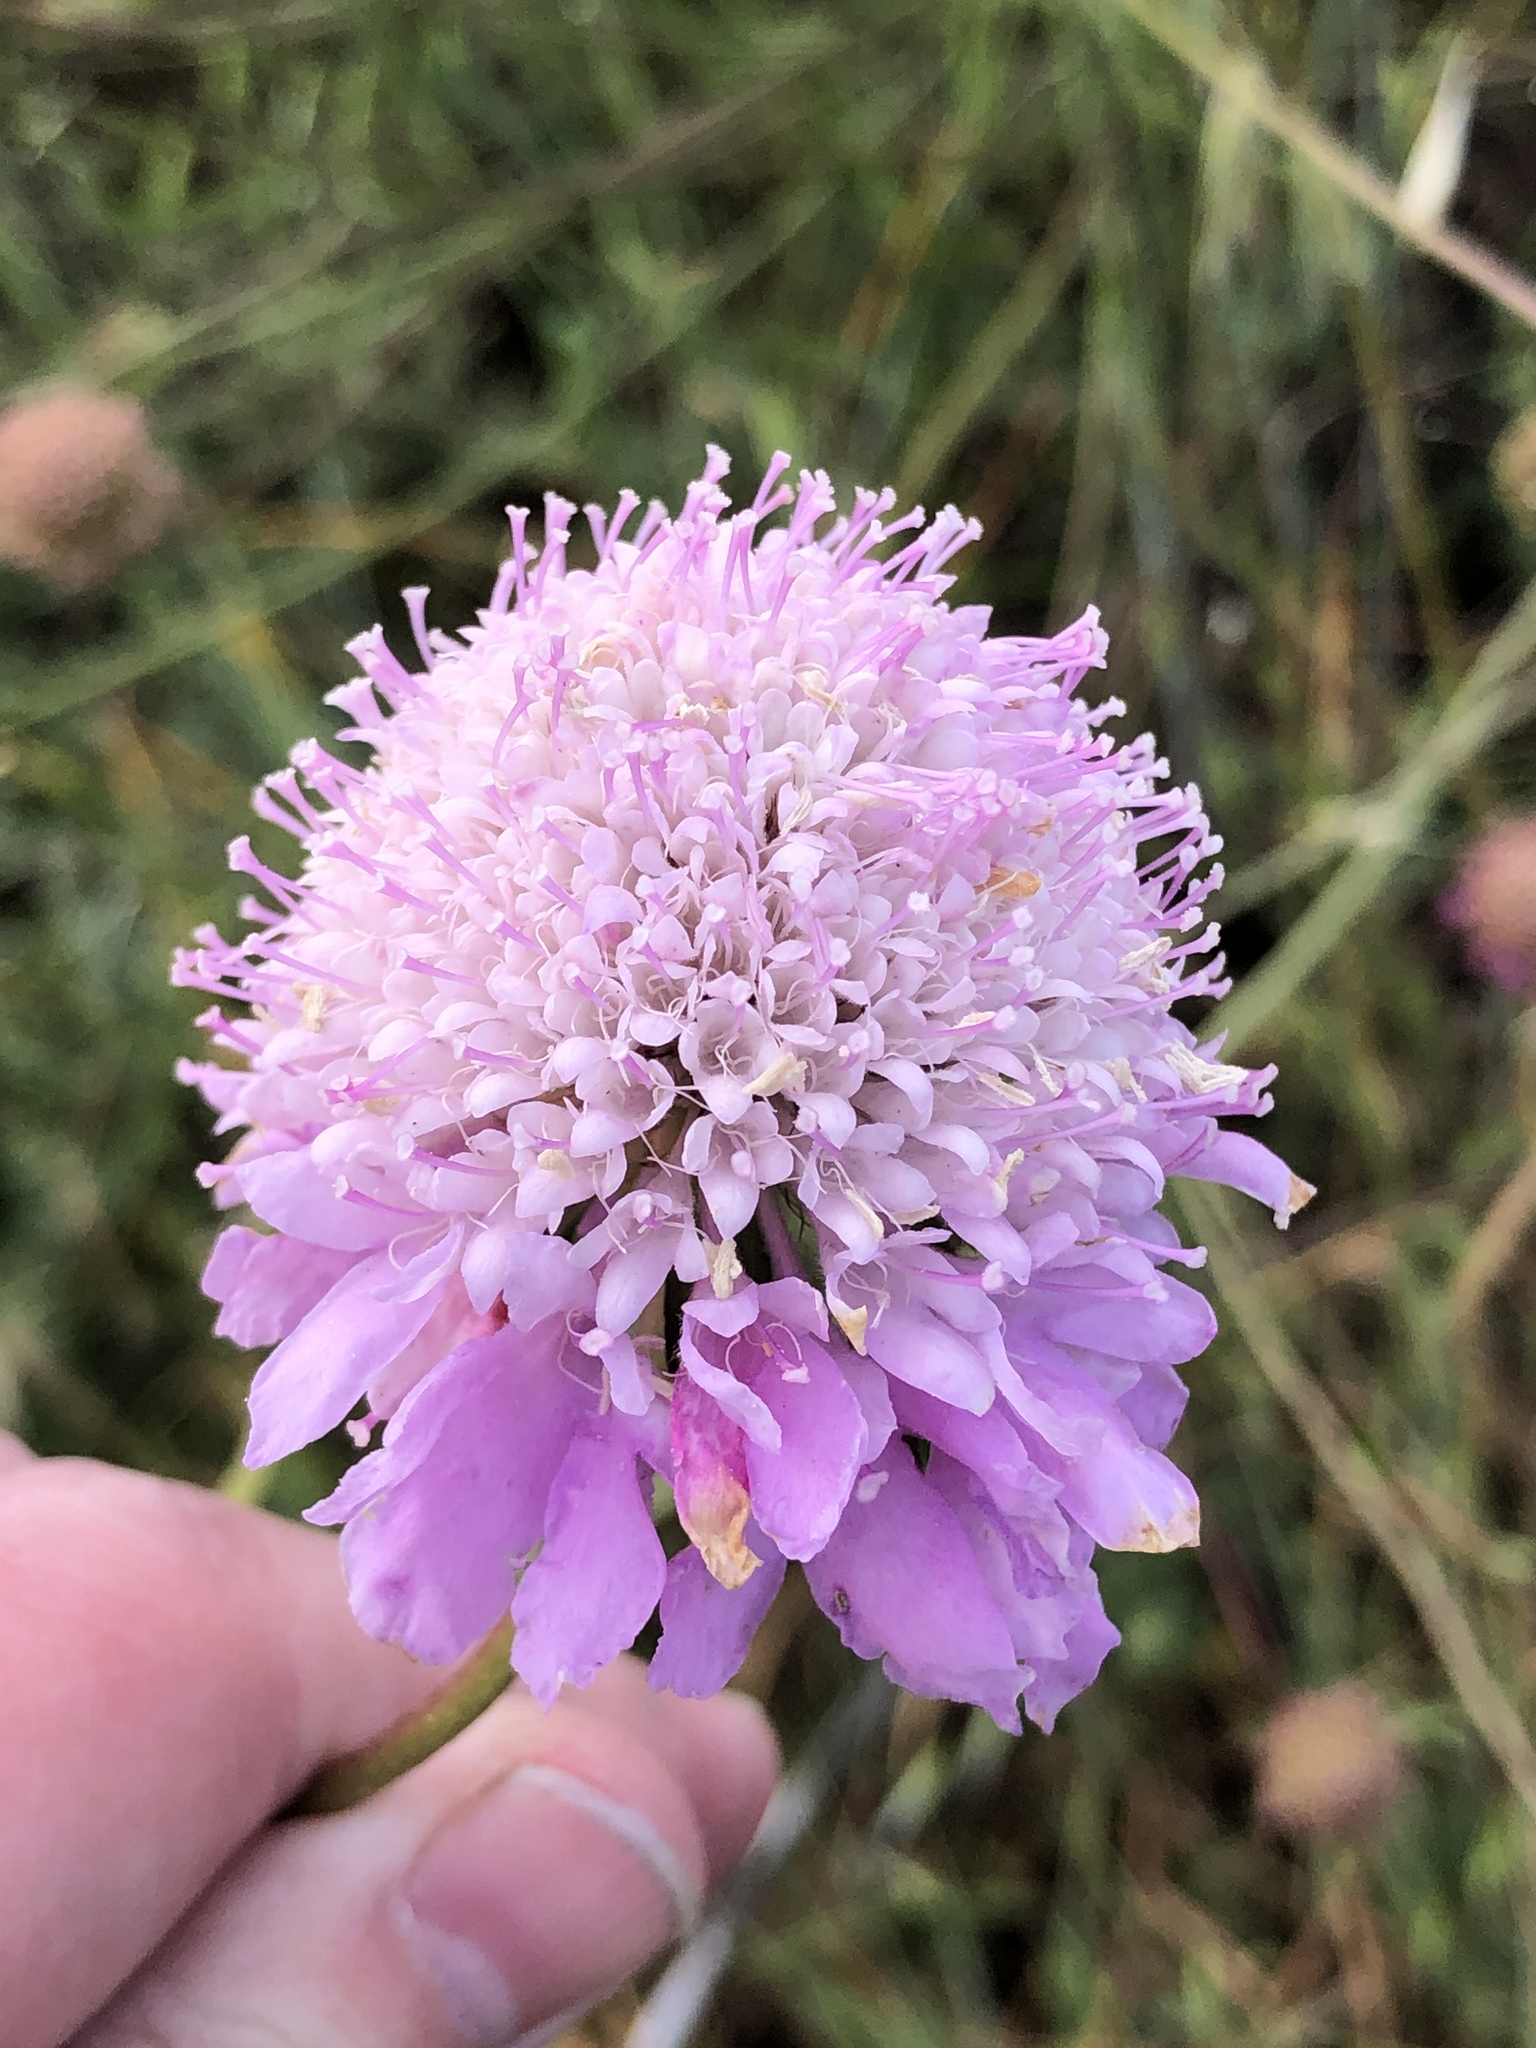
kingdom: Plantae
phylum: Tracheophyta
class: Magnoliopsida
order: Dipsacales
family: Caprifoliaceae
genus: Sixalix
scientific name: Sixalix atropurpurea
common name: Sweet scabious
